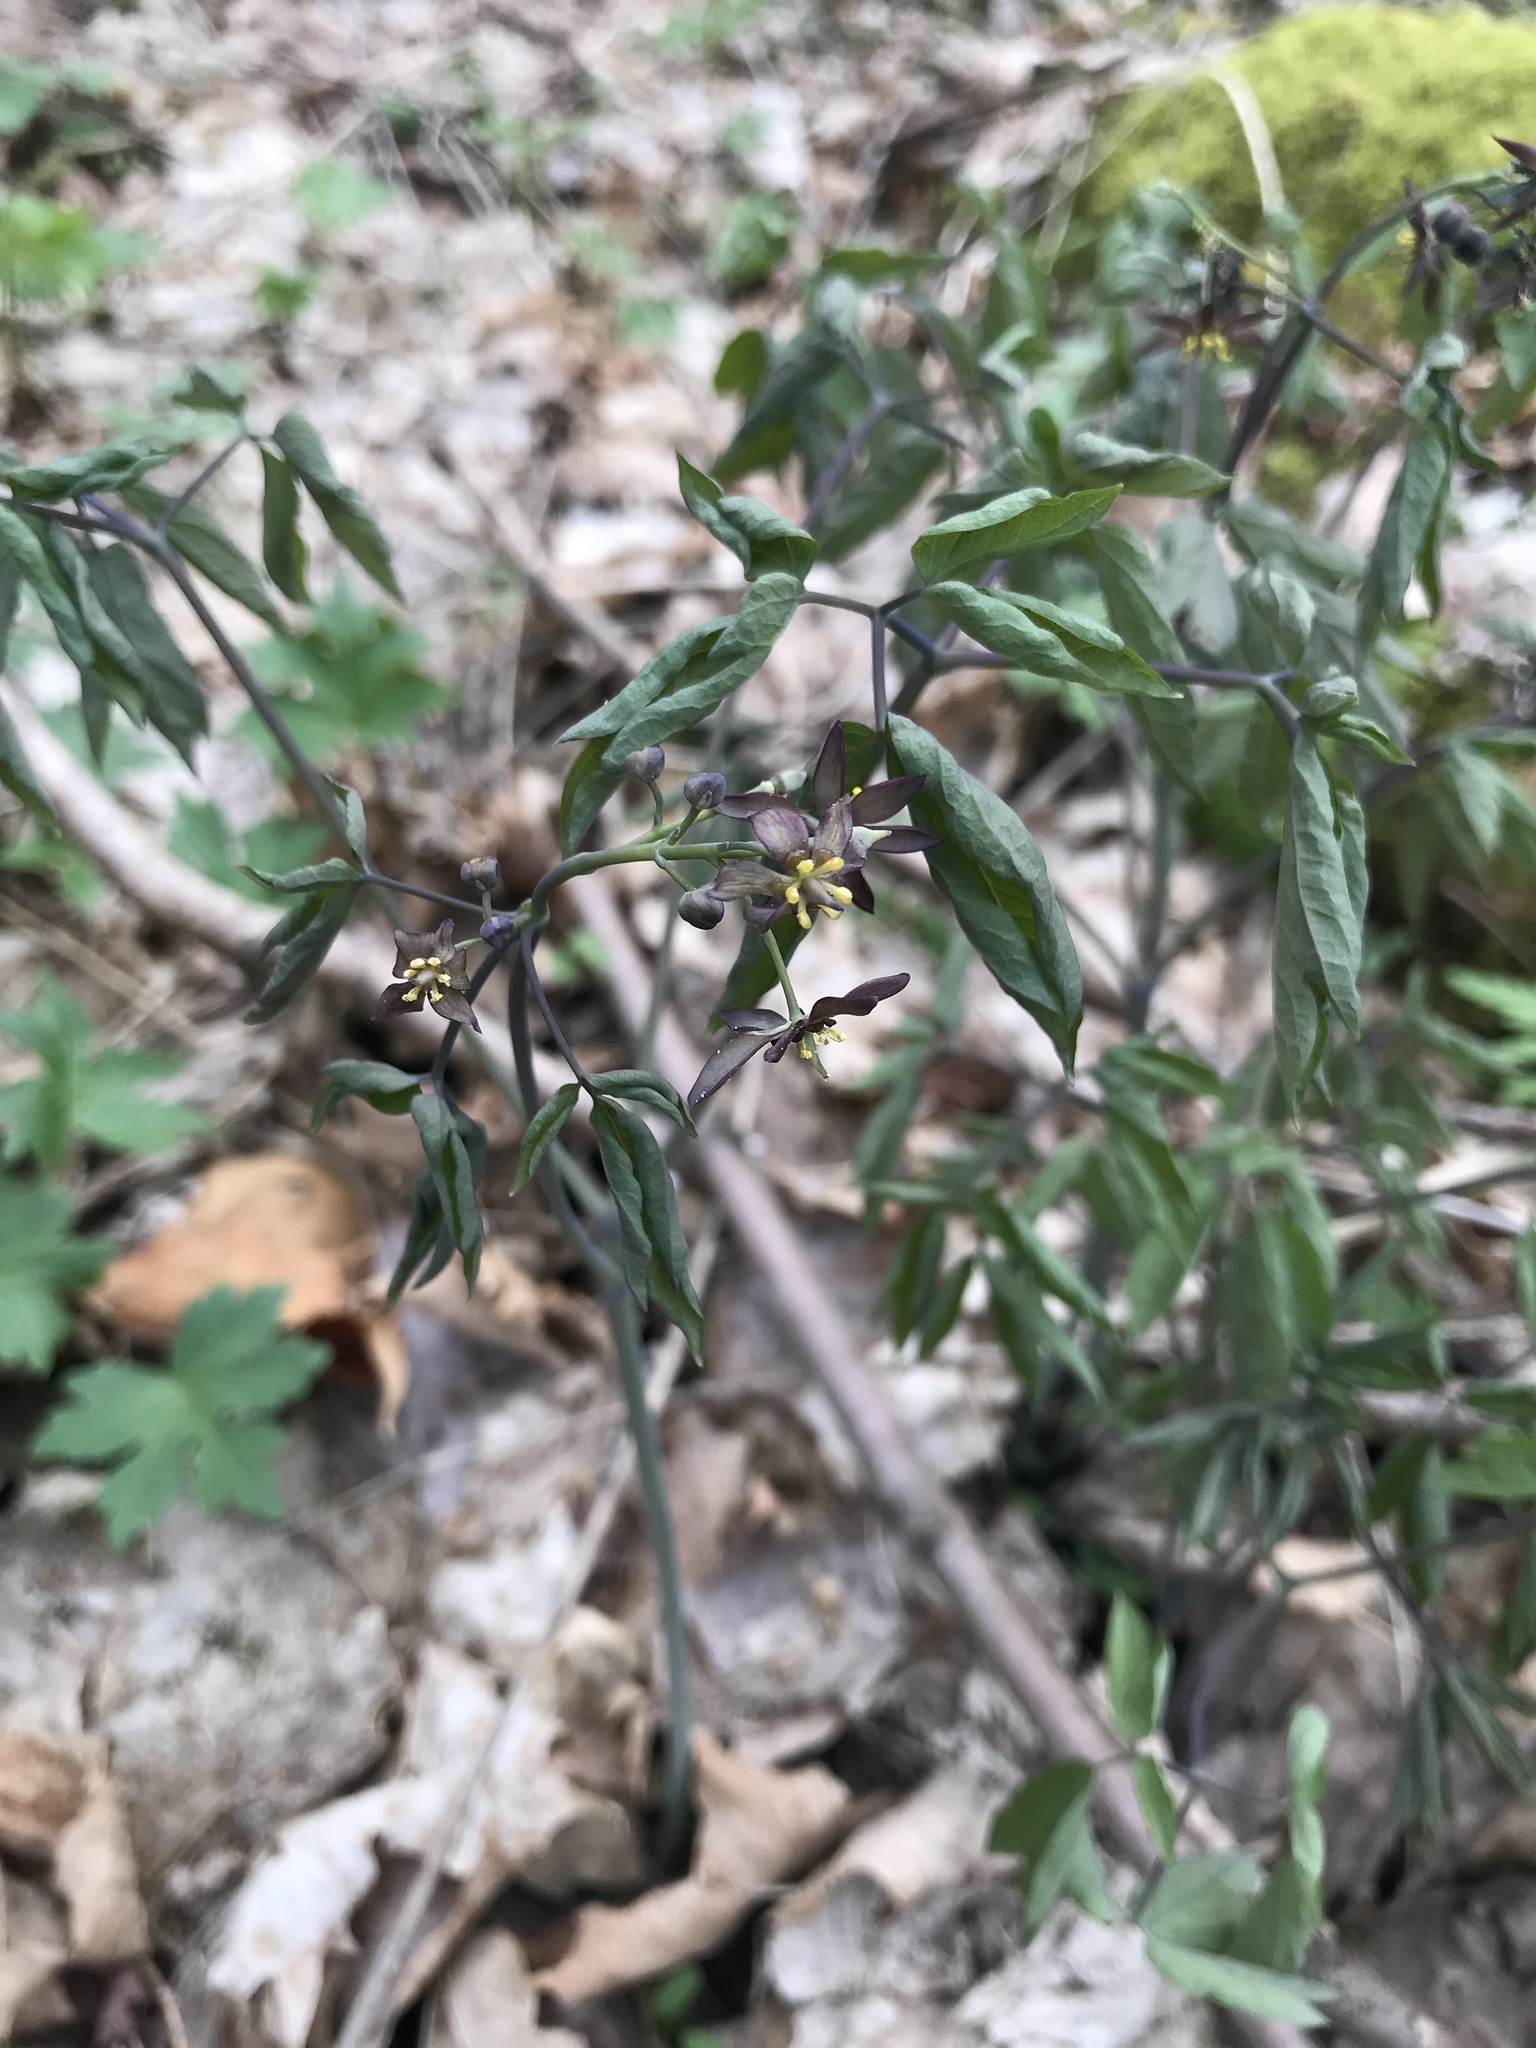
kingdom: Plantae
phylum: Tracheophyta
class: Magnoliopsida
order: Ranunculales
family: Berberidaceae
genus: Caulophyllum
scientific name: Caulophyllum giganteum
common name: Blue cohosh
